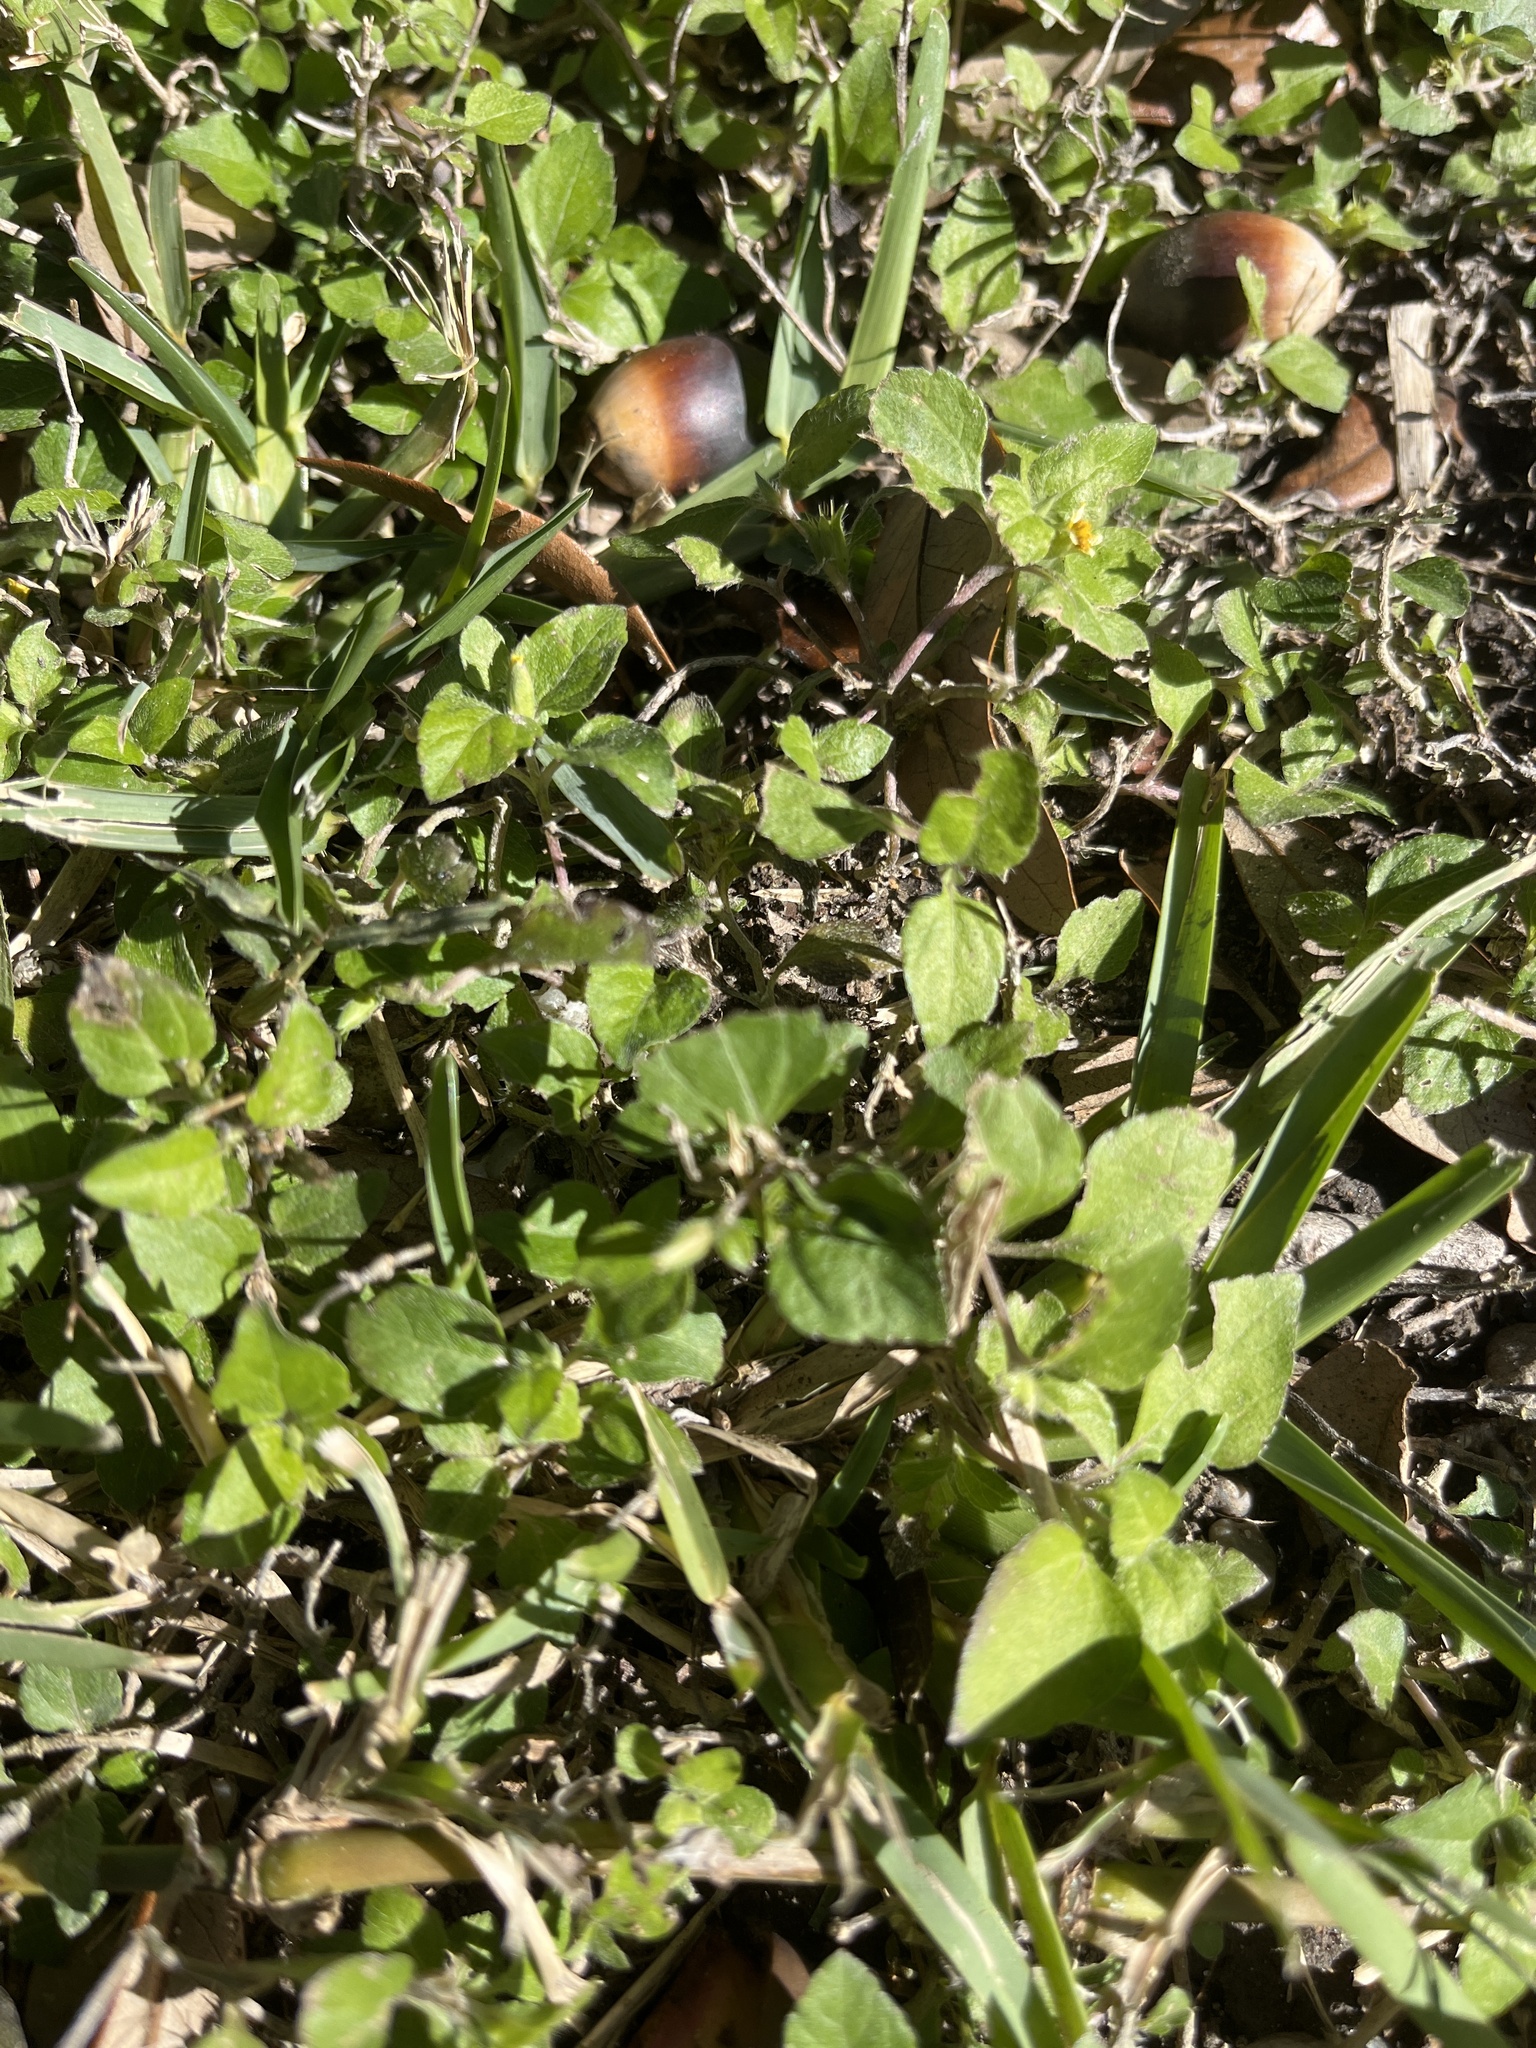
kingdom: Plantae
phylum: Tracheophyta
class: Magnoliopsida
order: Asterales
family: Asteraceae
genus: Calyptocarpus
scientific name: Calyptocarpus vialis
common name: Straggler daisy
